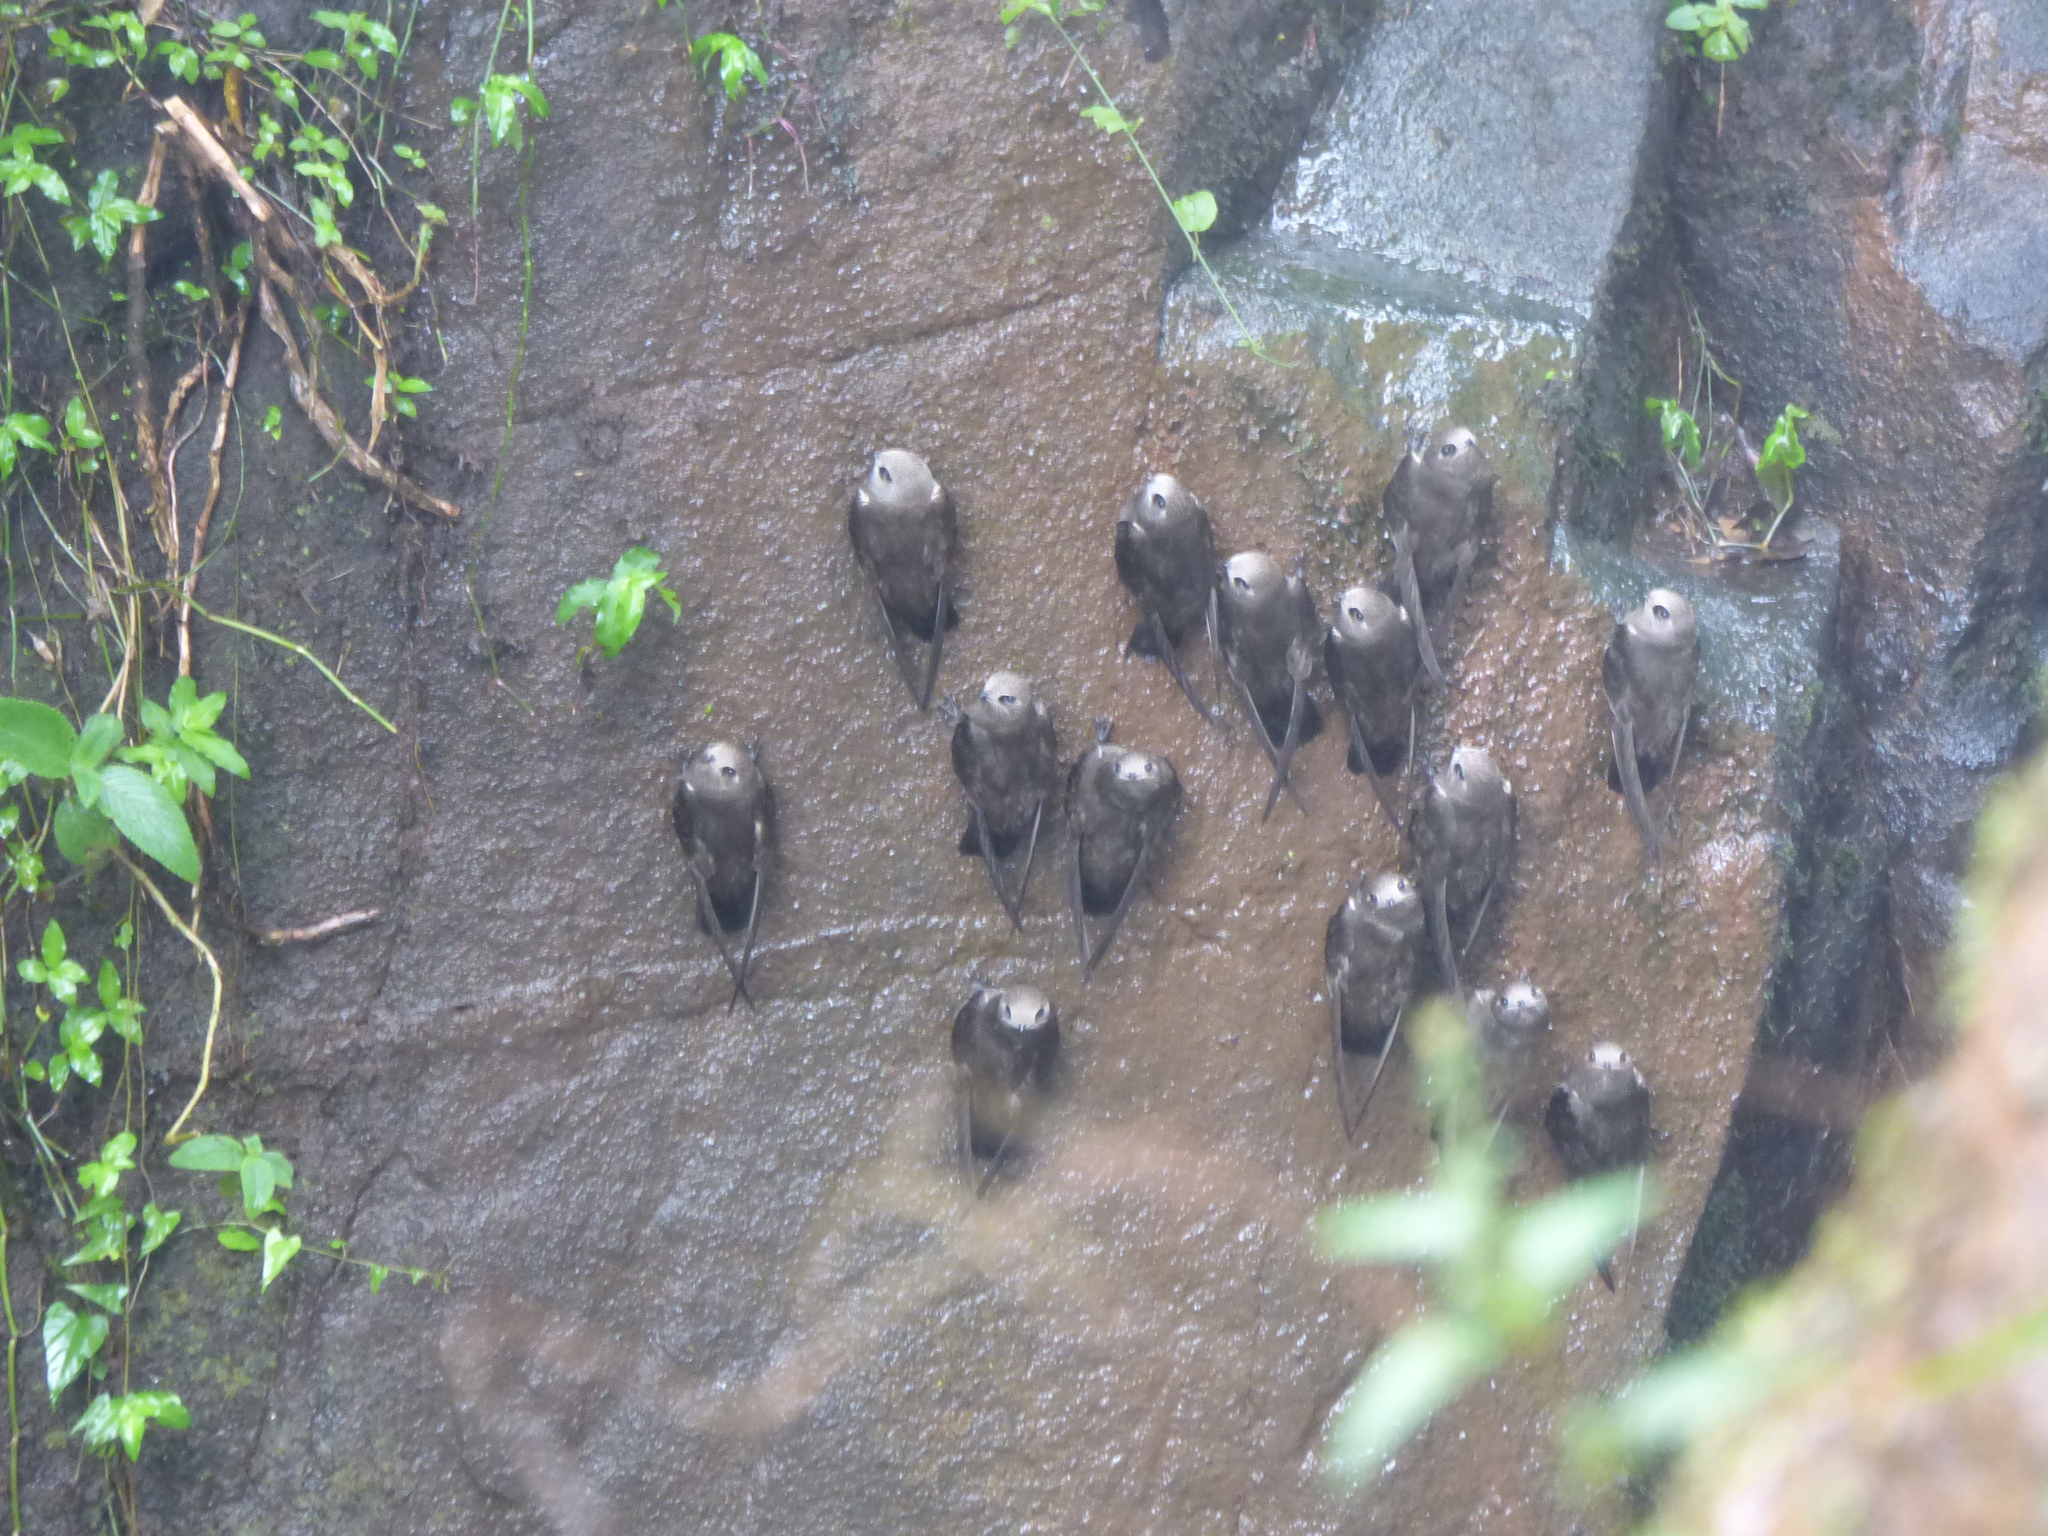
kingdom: Animalia
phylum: Chordata
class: Aves
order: Apodiformes
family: Apodidae
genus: Cypseloides
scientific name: Cypseloides senex
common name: Great dusky swift
